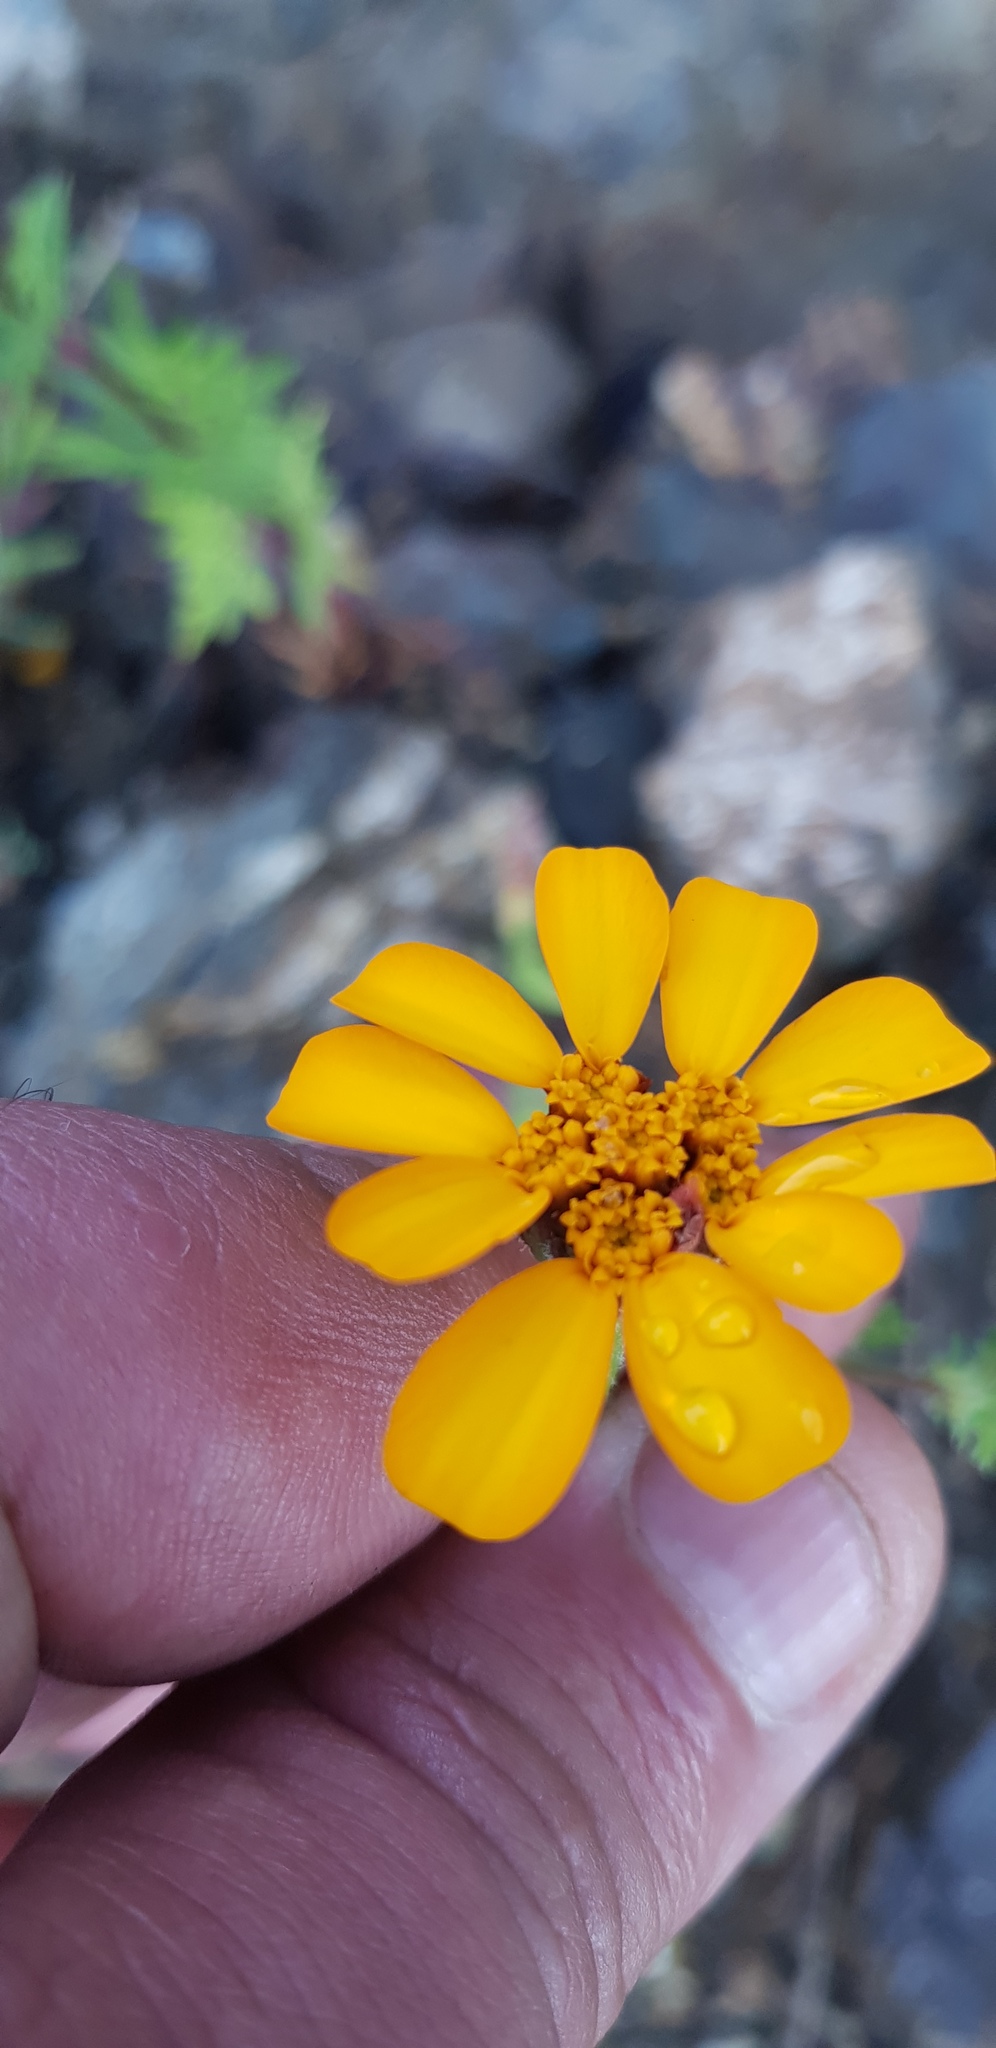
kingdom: Plantae
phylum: Tracheophyta
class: Magnoliopsida
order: Asterales
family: Asteraceae
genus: Dyssodia
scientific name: Dyssodia decipiens
